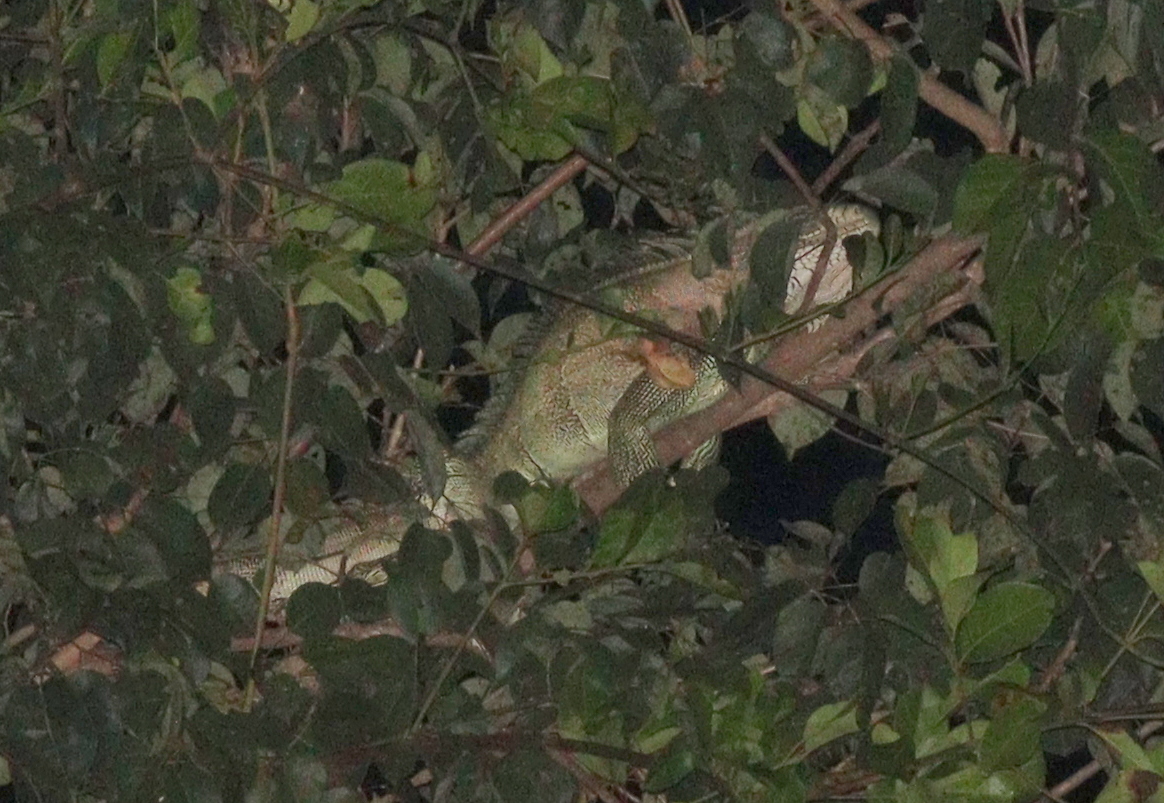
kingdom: Animalia
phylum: Chordata
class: Squamata
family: Iguanidae
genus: Iguana
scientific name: Iguana iguana
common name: Green iguana
